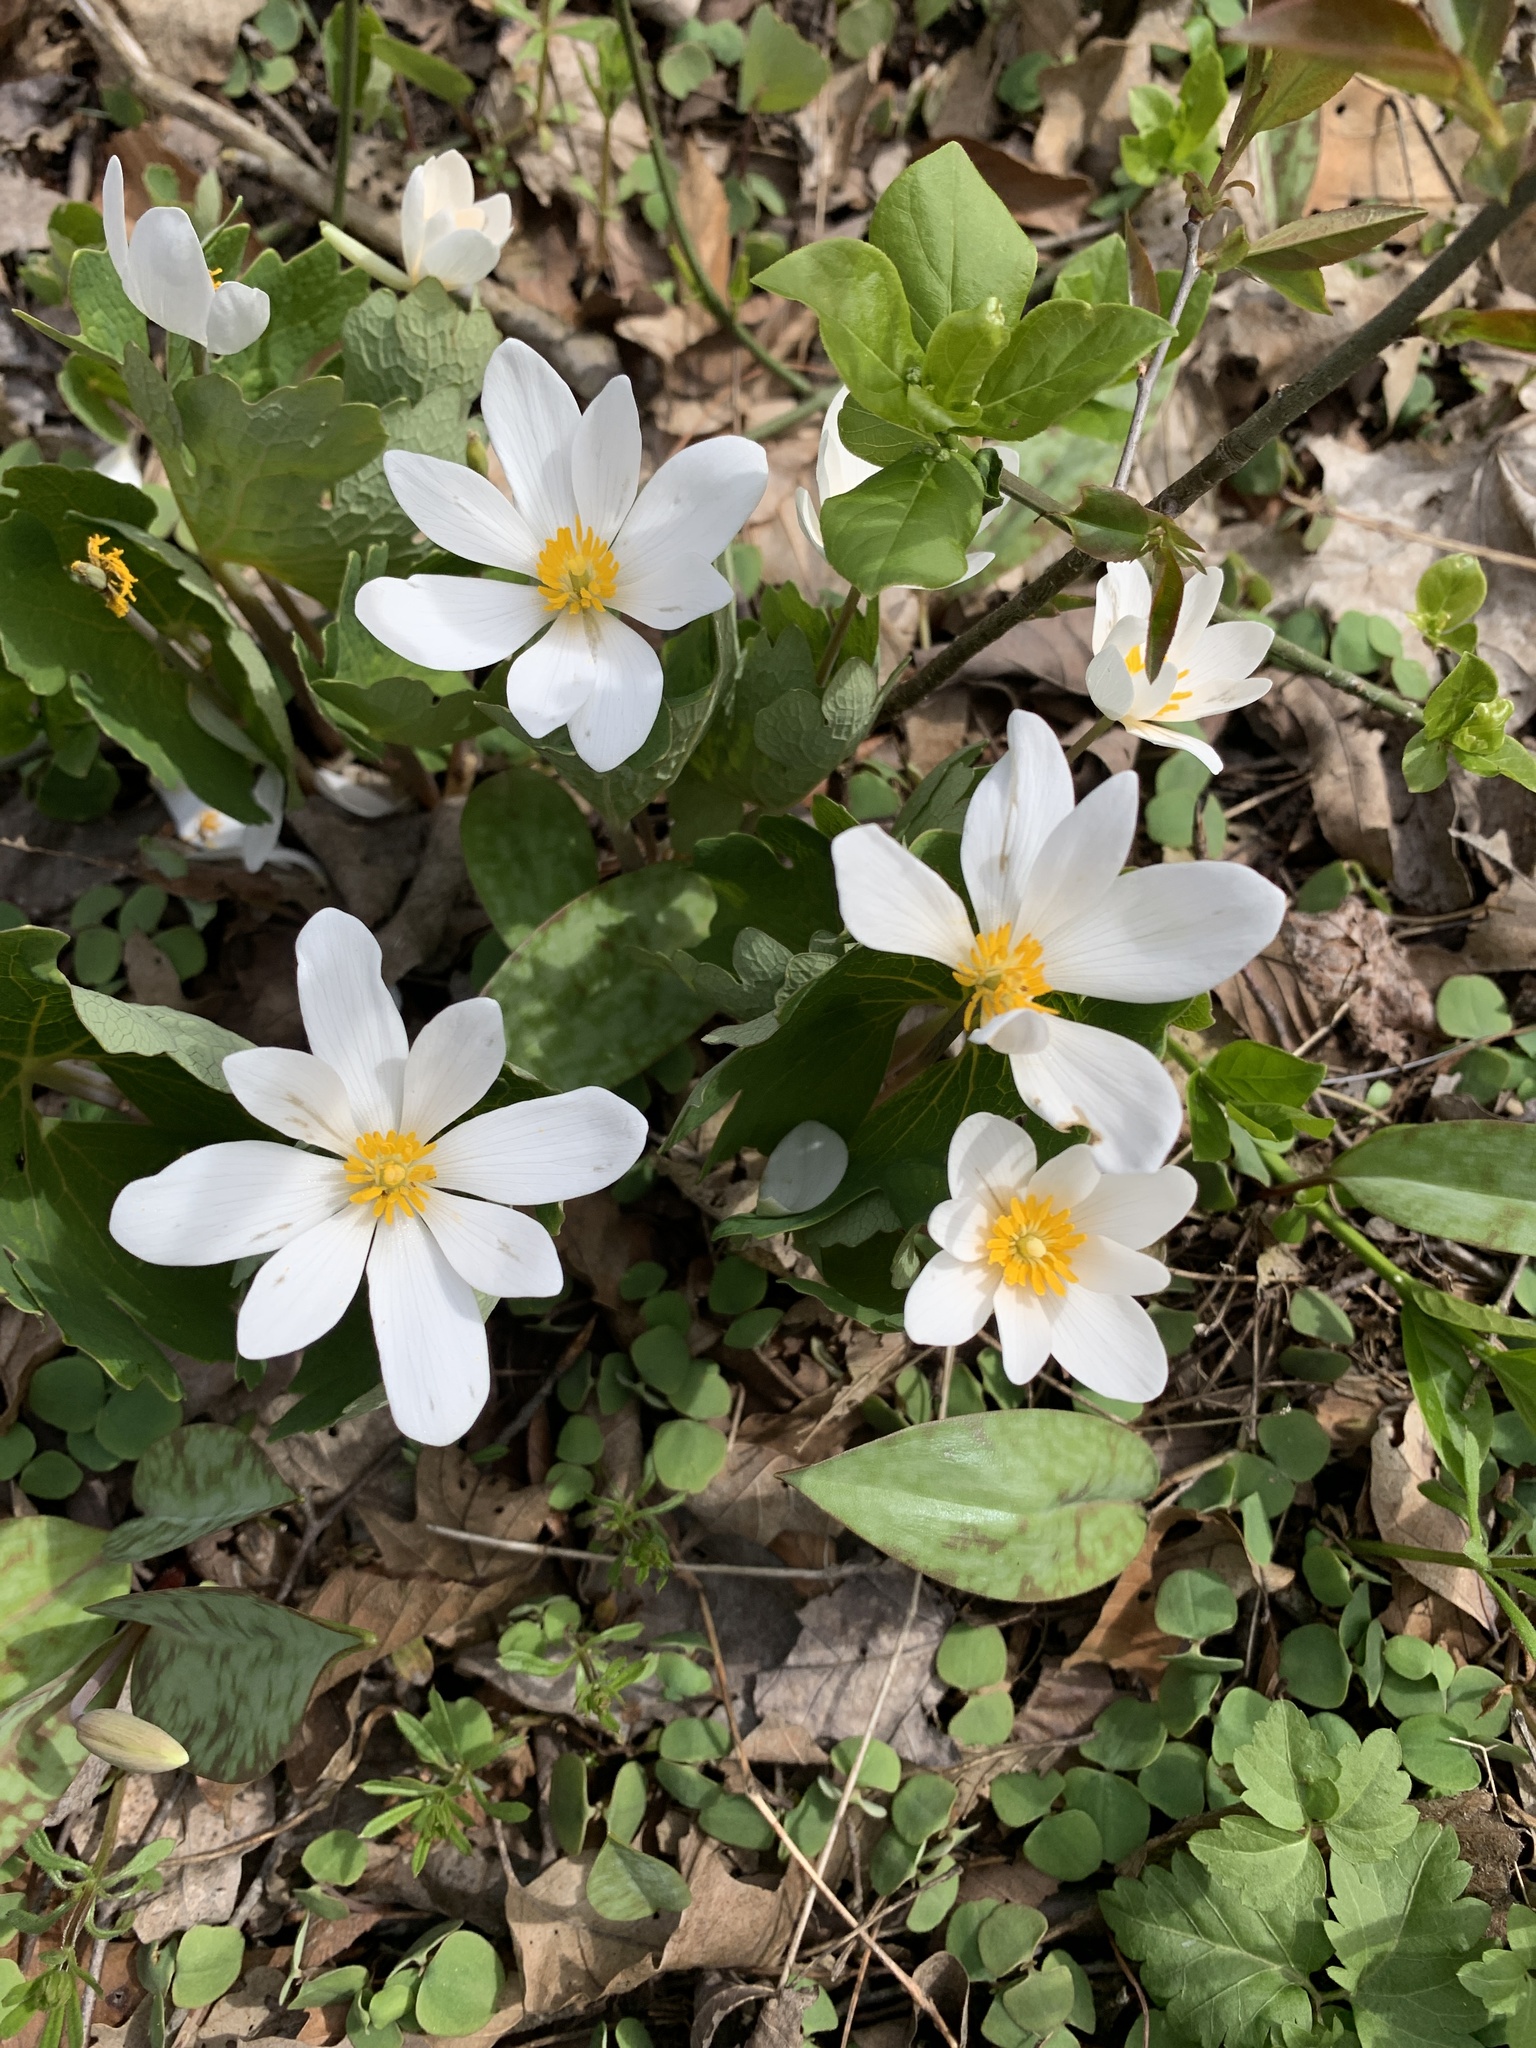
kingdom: Plantae
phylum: Tracheophyta
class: Magnoliopsida
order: Ranunculales
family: Papaveraceae
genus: Sanguinaria
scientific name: Sanguinaria canadensis
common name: Bloodroot
